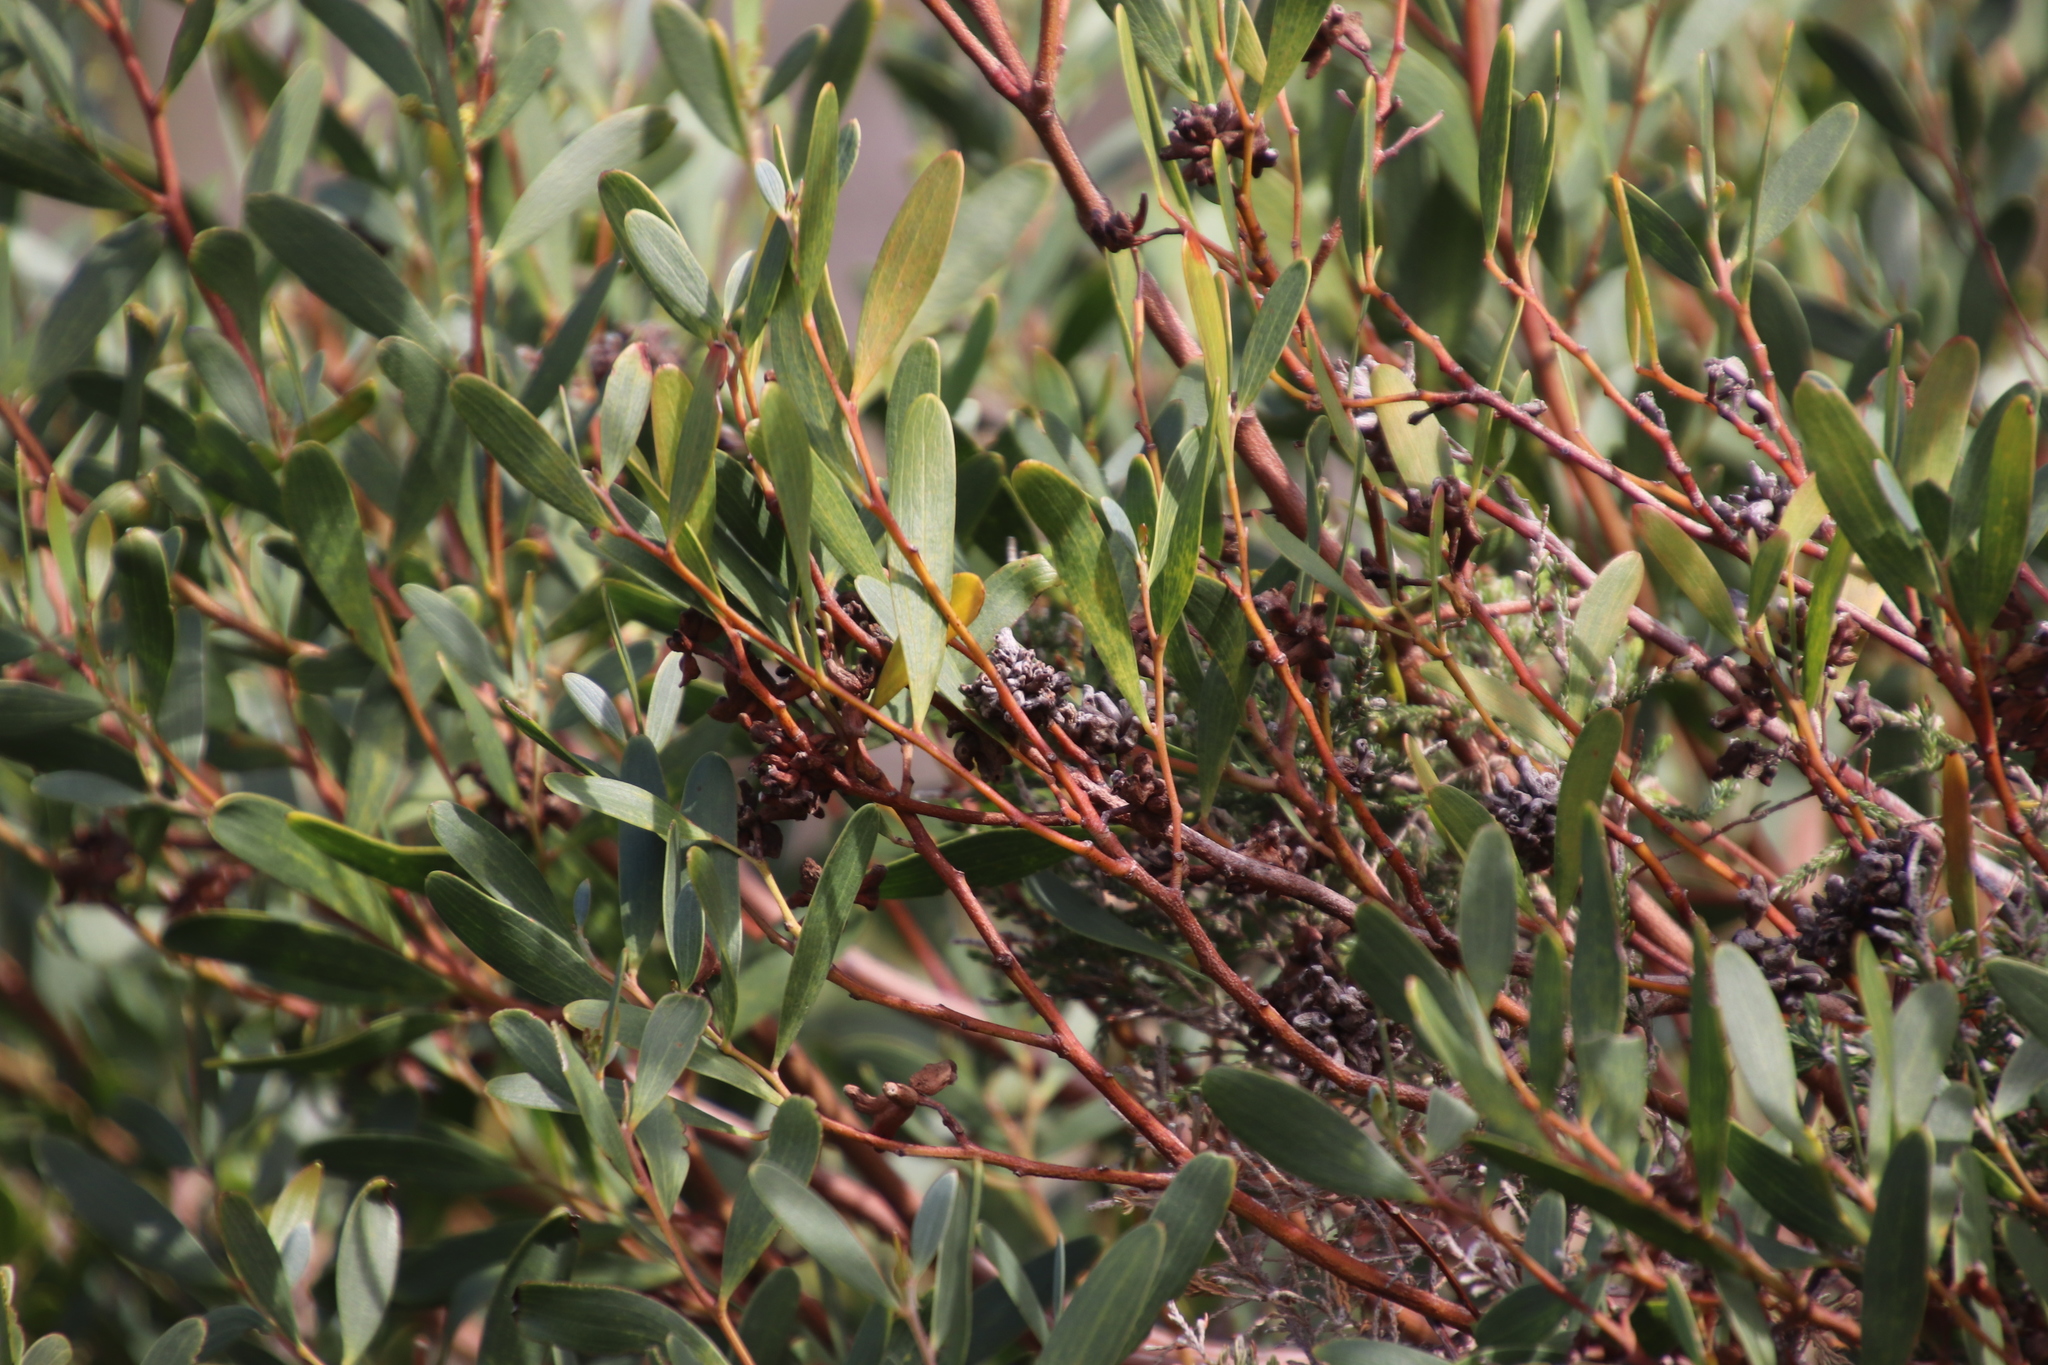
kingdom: Plantae
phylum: Tracheophyta
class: Magnoliopsida
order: Fabales
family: Fabaceae
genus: Acacia
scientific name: Acacia cyclops
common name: Coastal wattle
